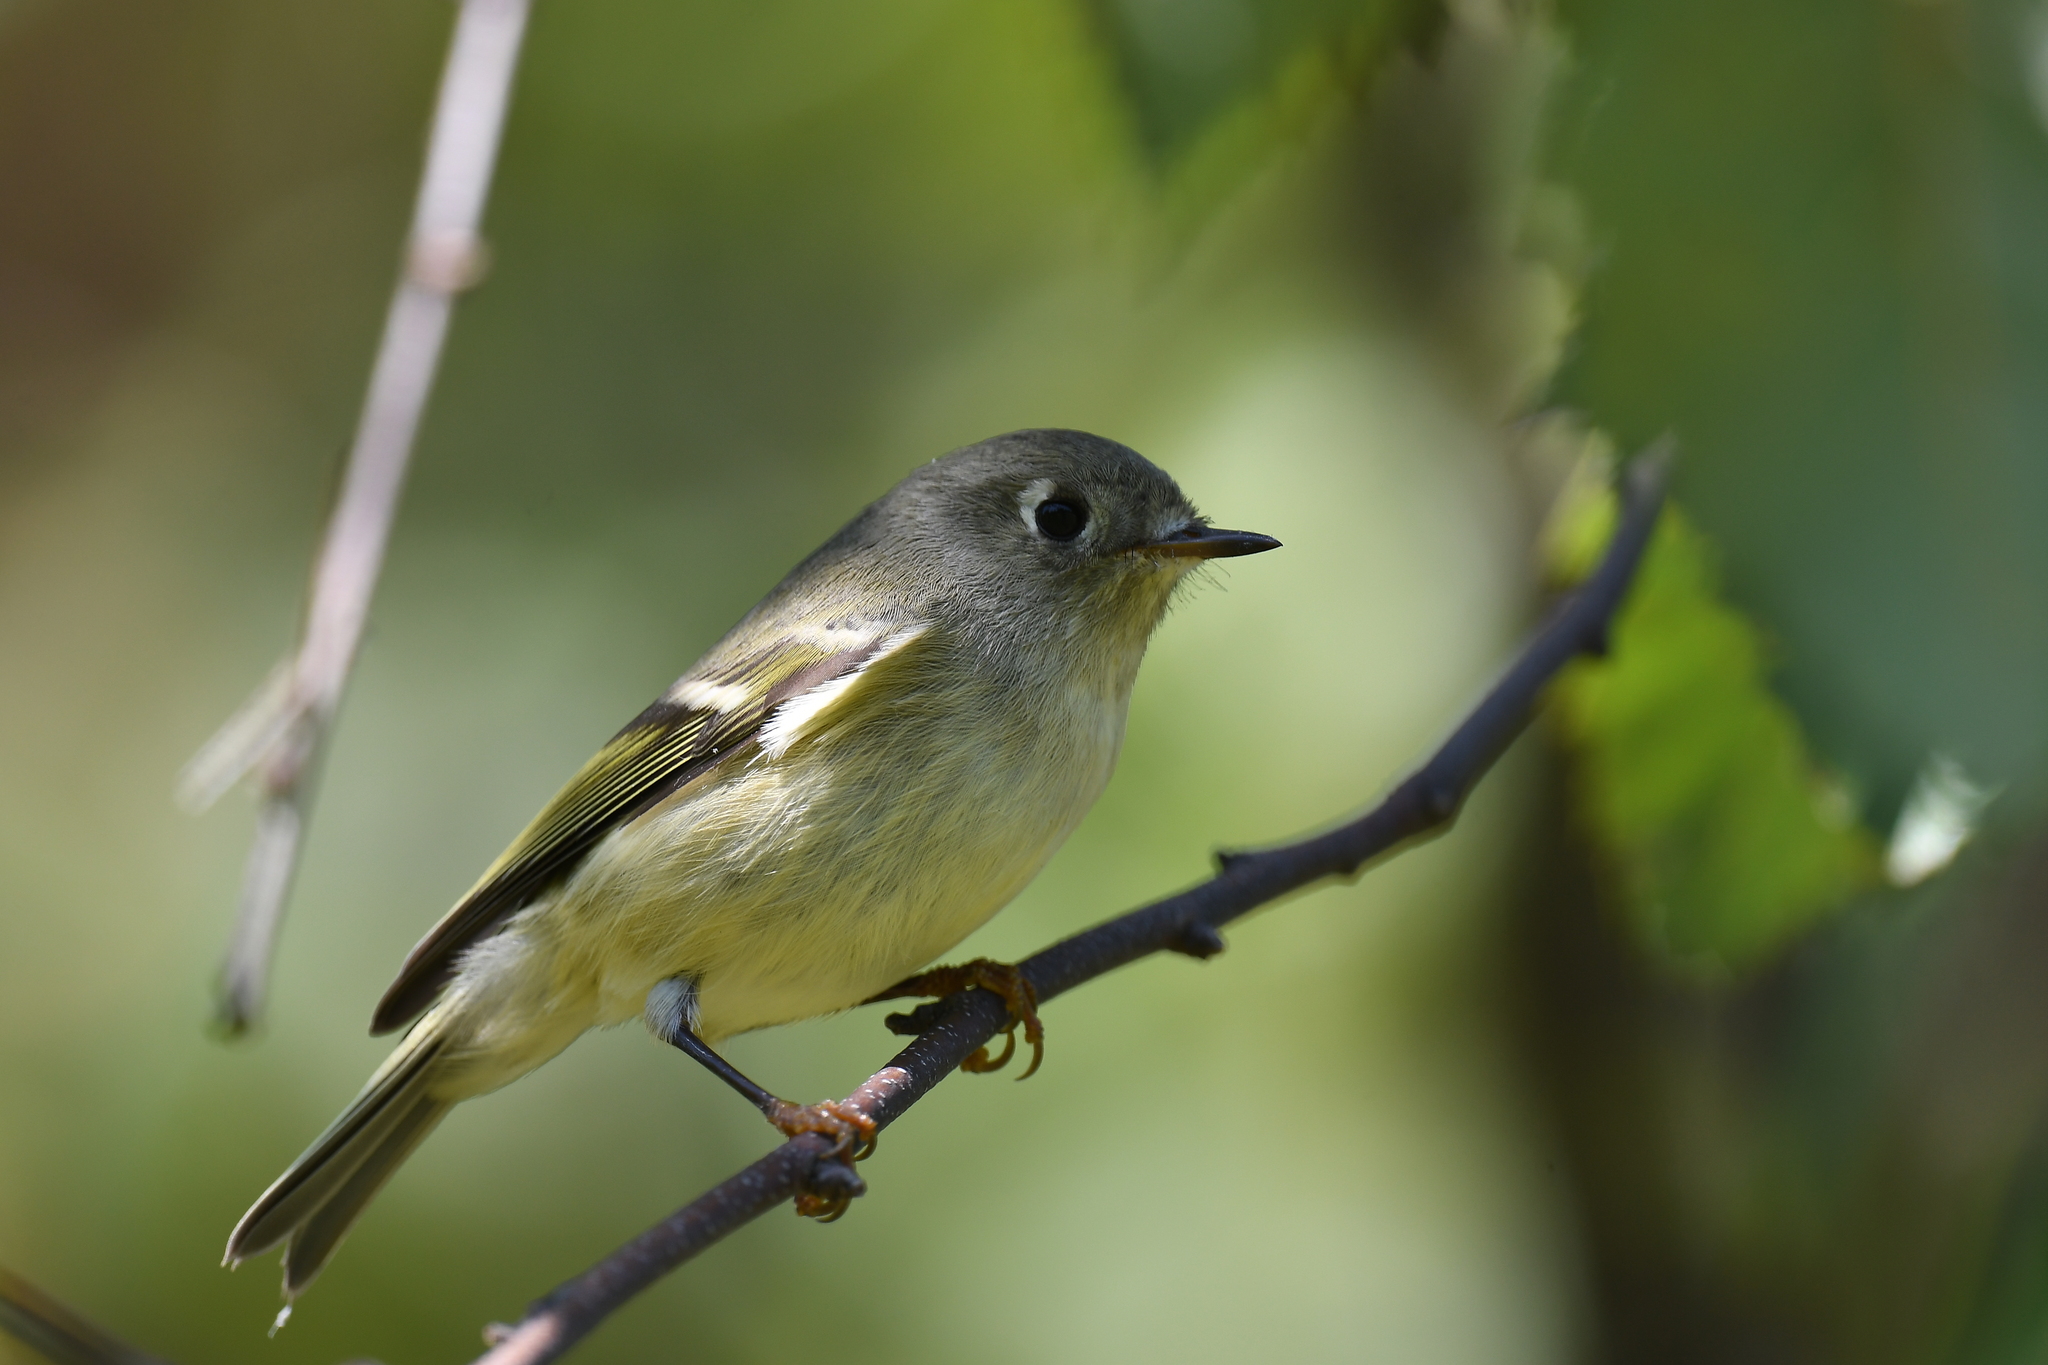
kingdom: Animalia
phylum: Chordata
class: Aves
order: Passeriformes
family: Regulidae
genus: Regulus
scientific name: Regulus calendula
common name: Ruby-crowned kinglet
